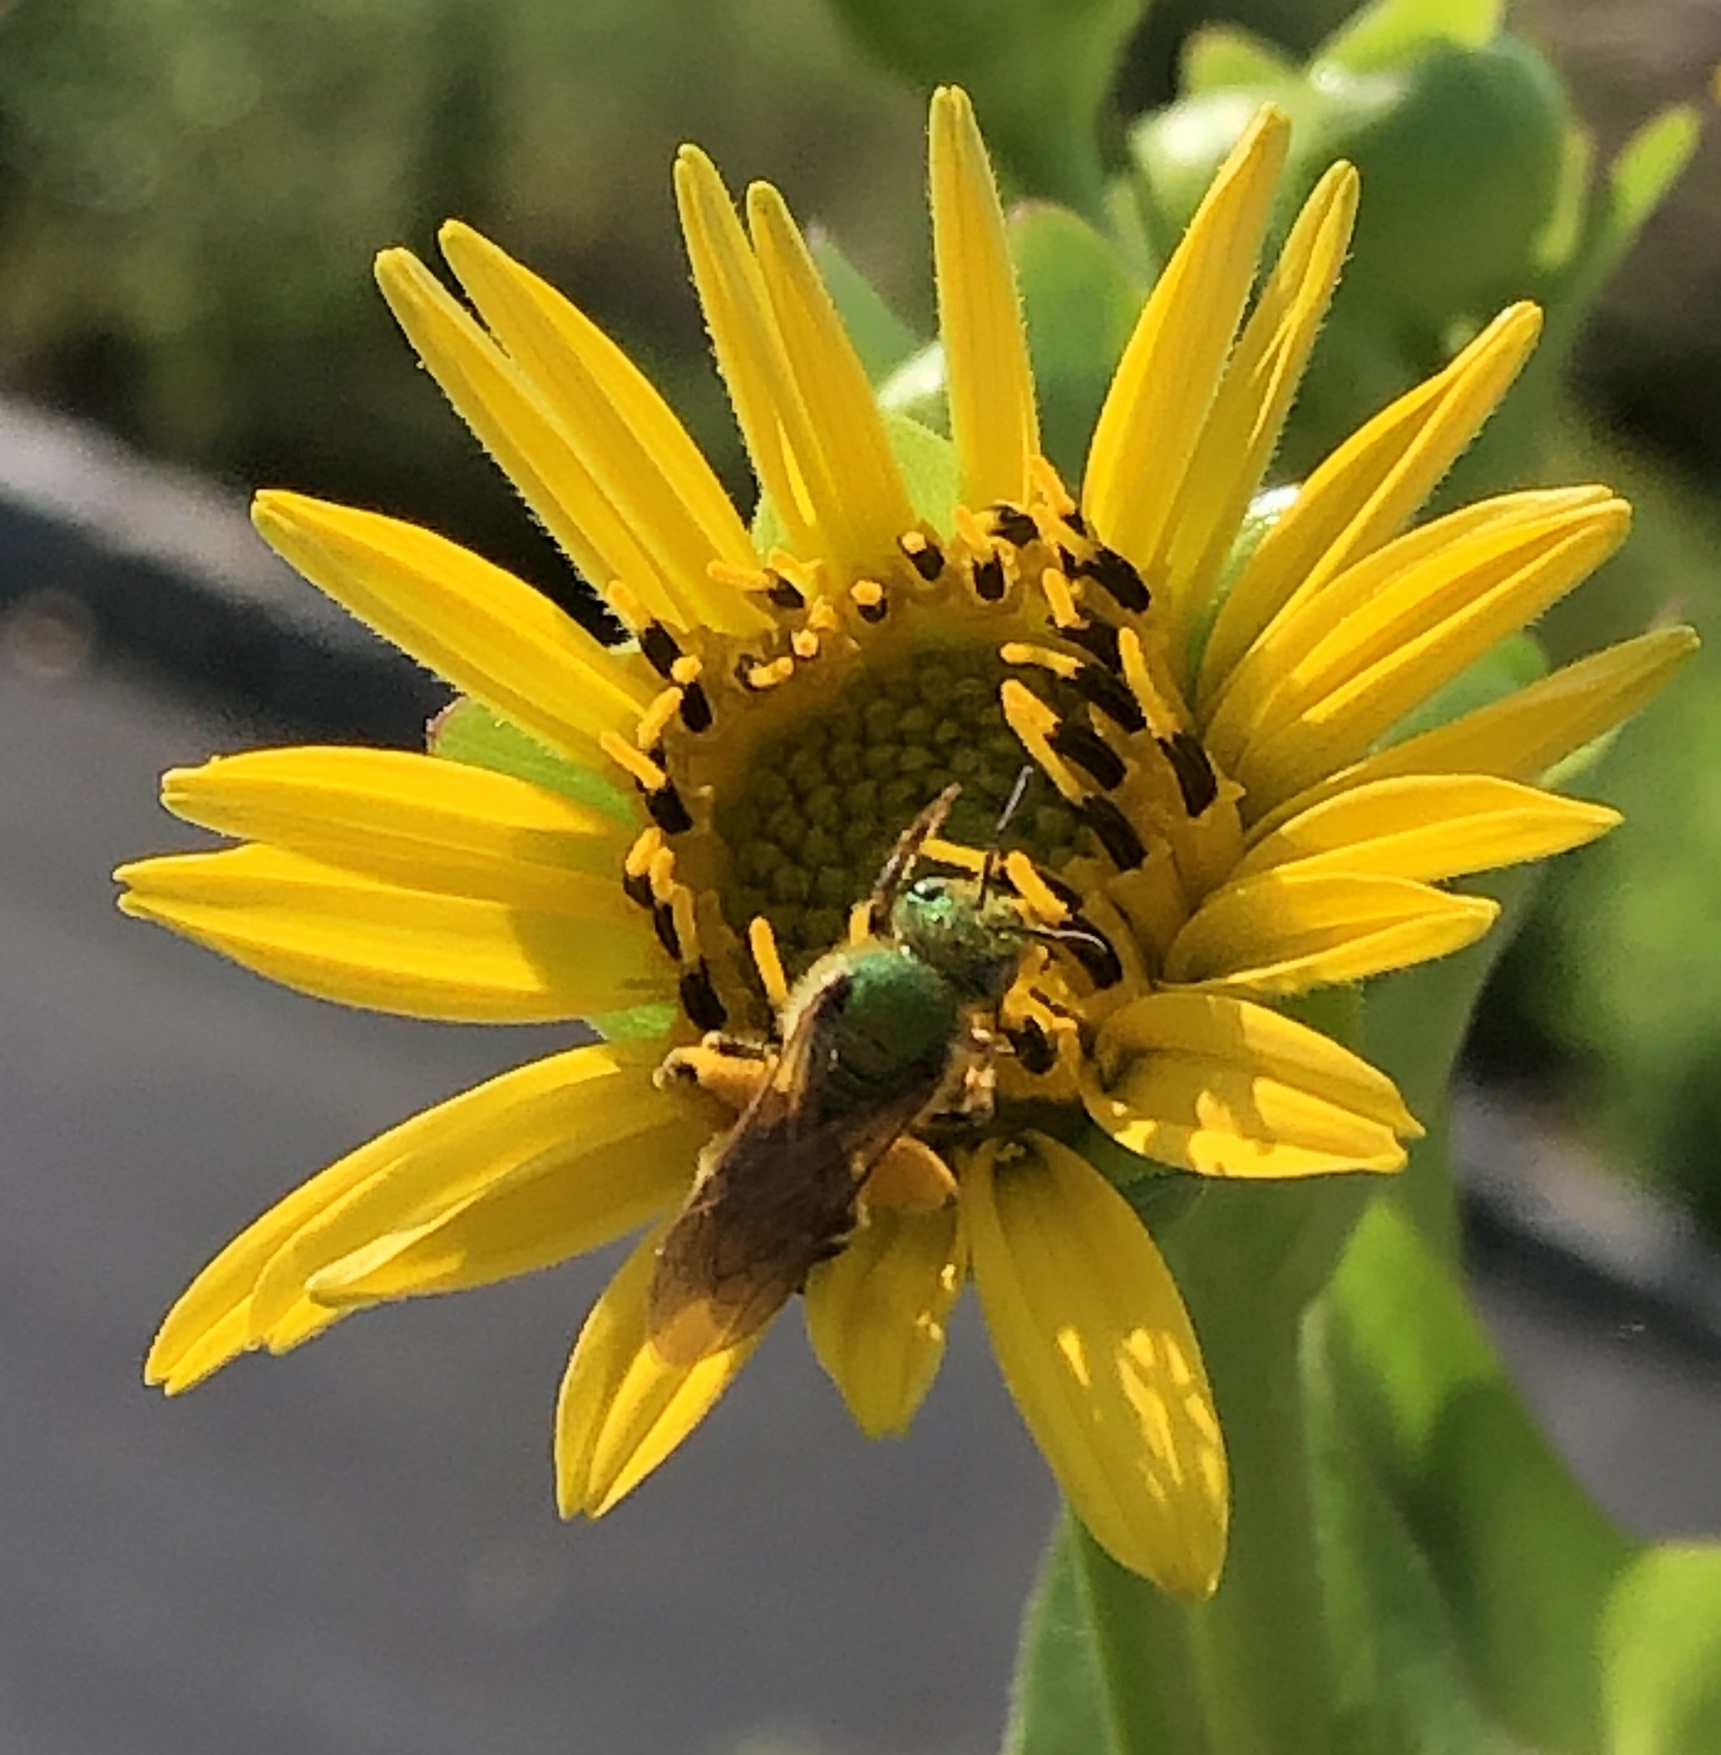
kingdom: Animalia
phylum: Arthropoda
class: Insecta
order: Hymenoptera
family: Halictidae
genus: Agapostemon
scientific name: Agapostemon virescens
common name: Bicolored striped sweat bee
